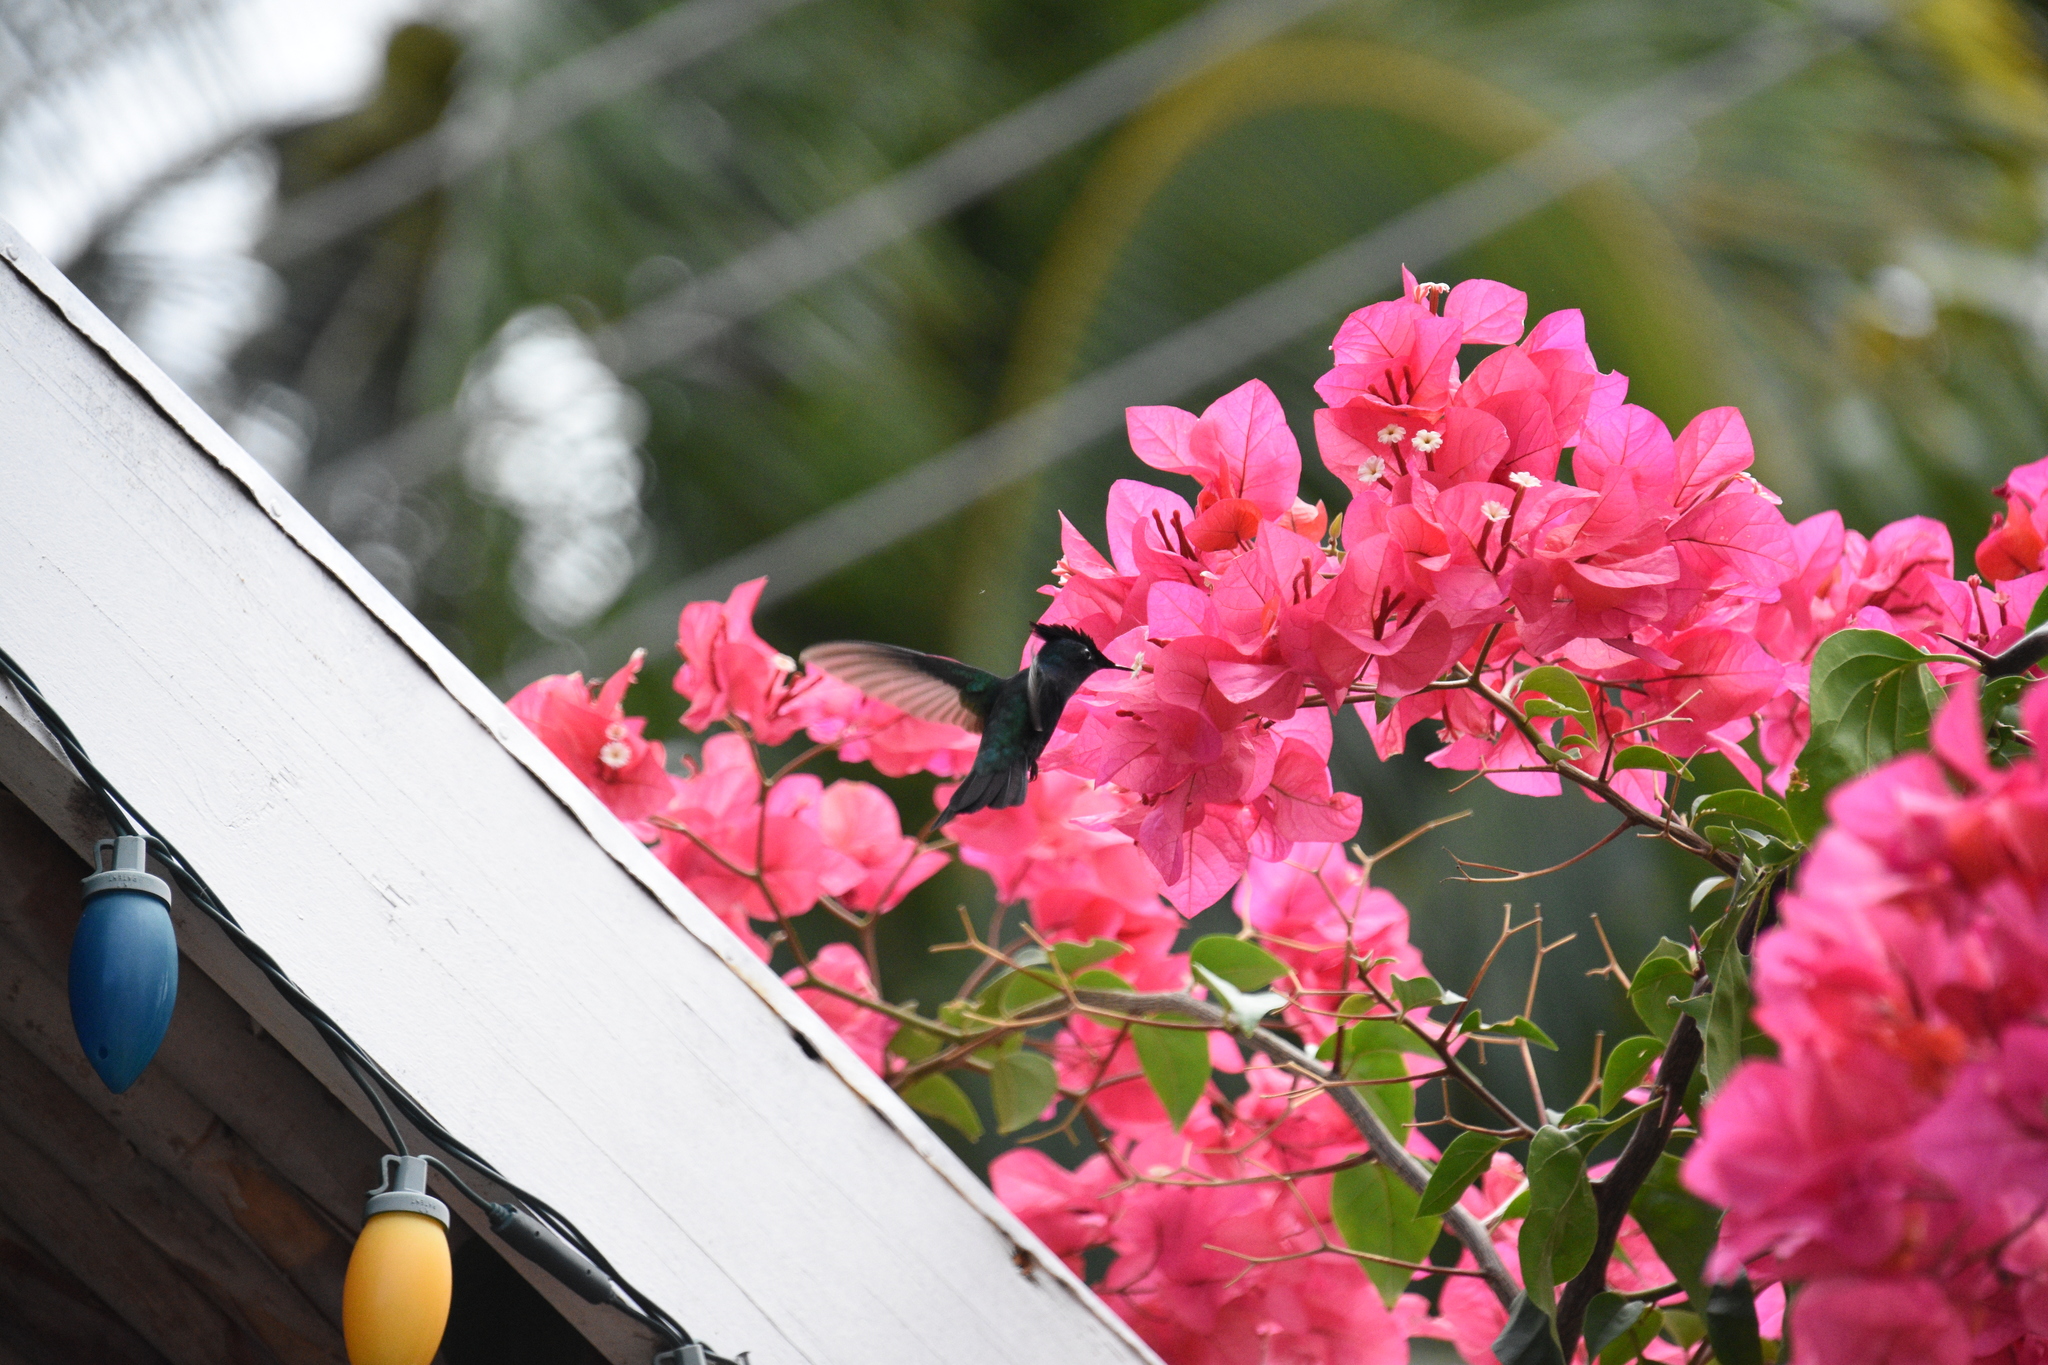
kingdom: Animalia
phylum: Chordata
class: Aves
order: Apodiformes
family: Trochilidae
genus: Orthorhyncus
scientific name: Orthorhyncus cristatus
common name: Antillean crested hummingbird
